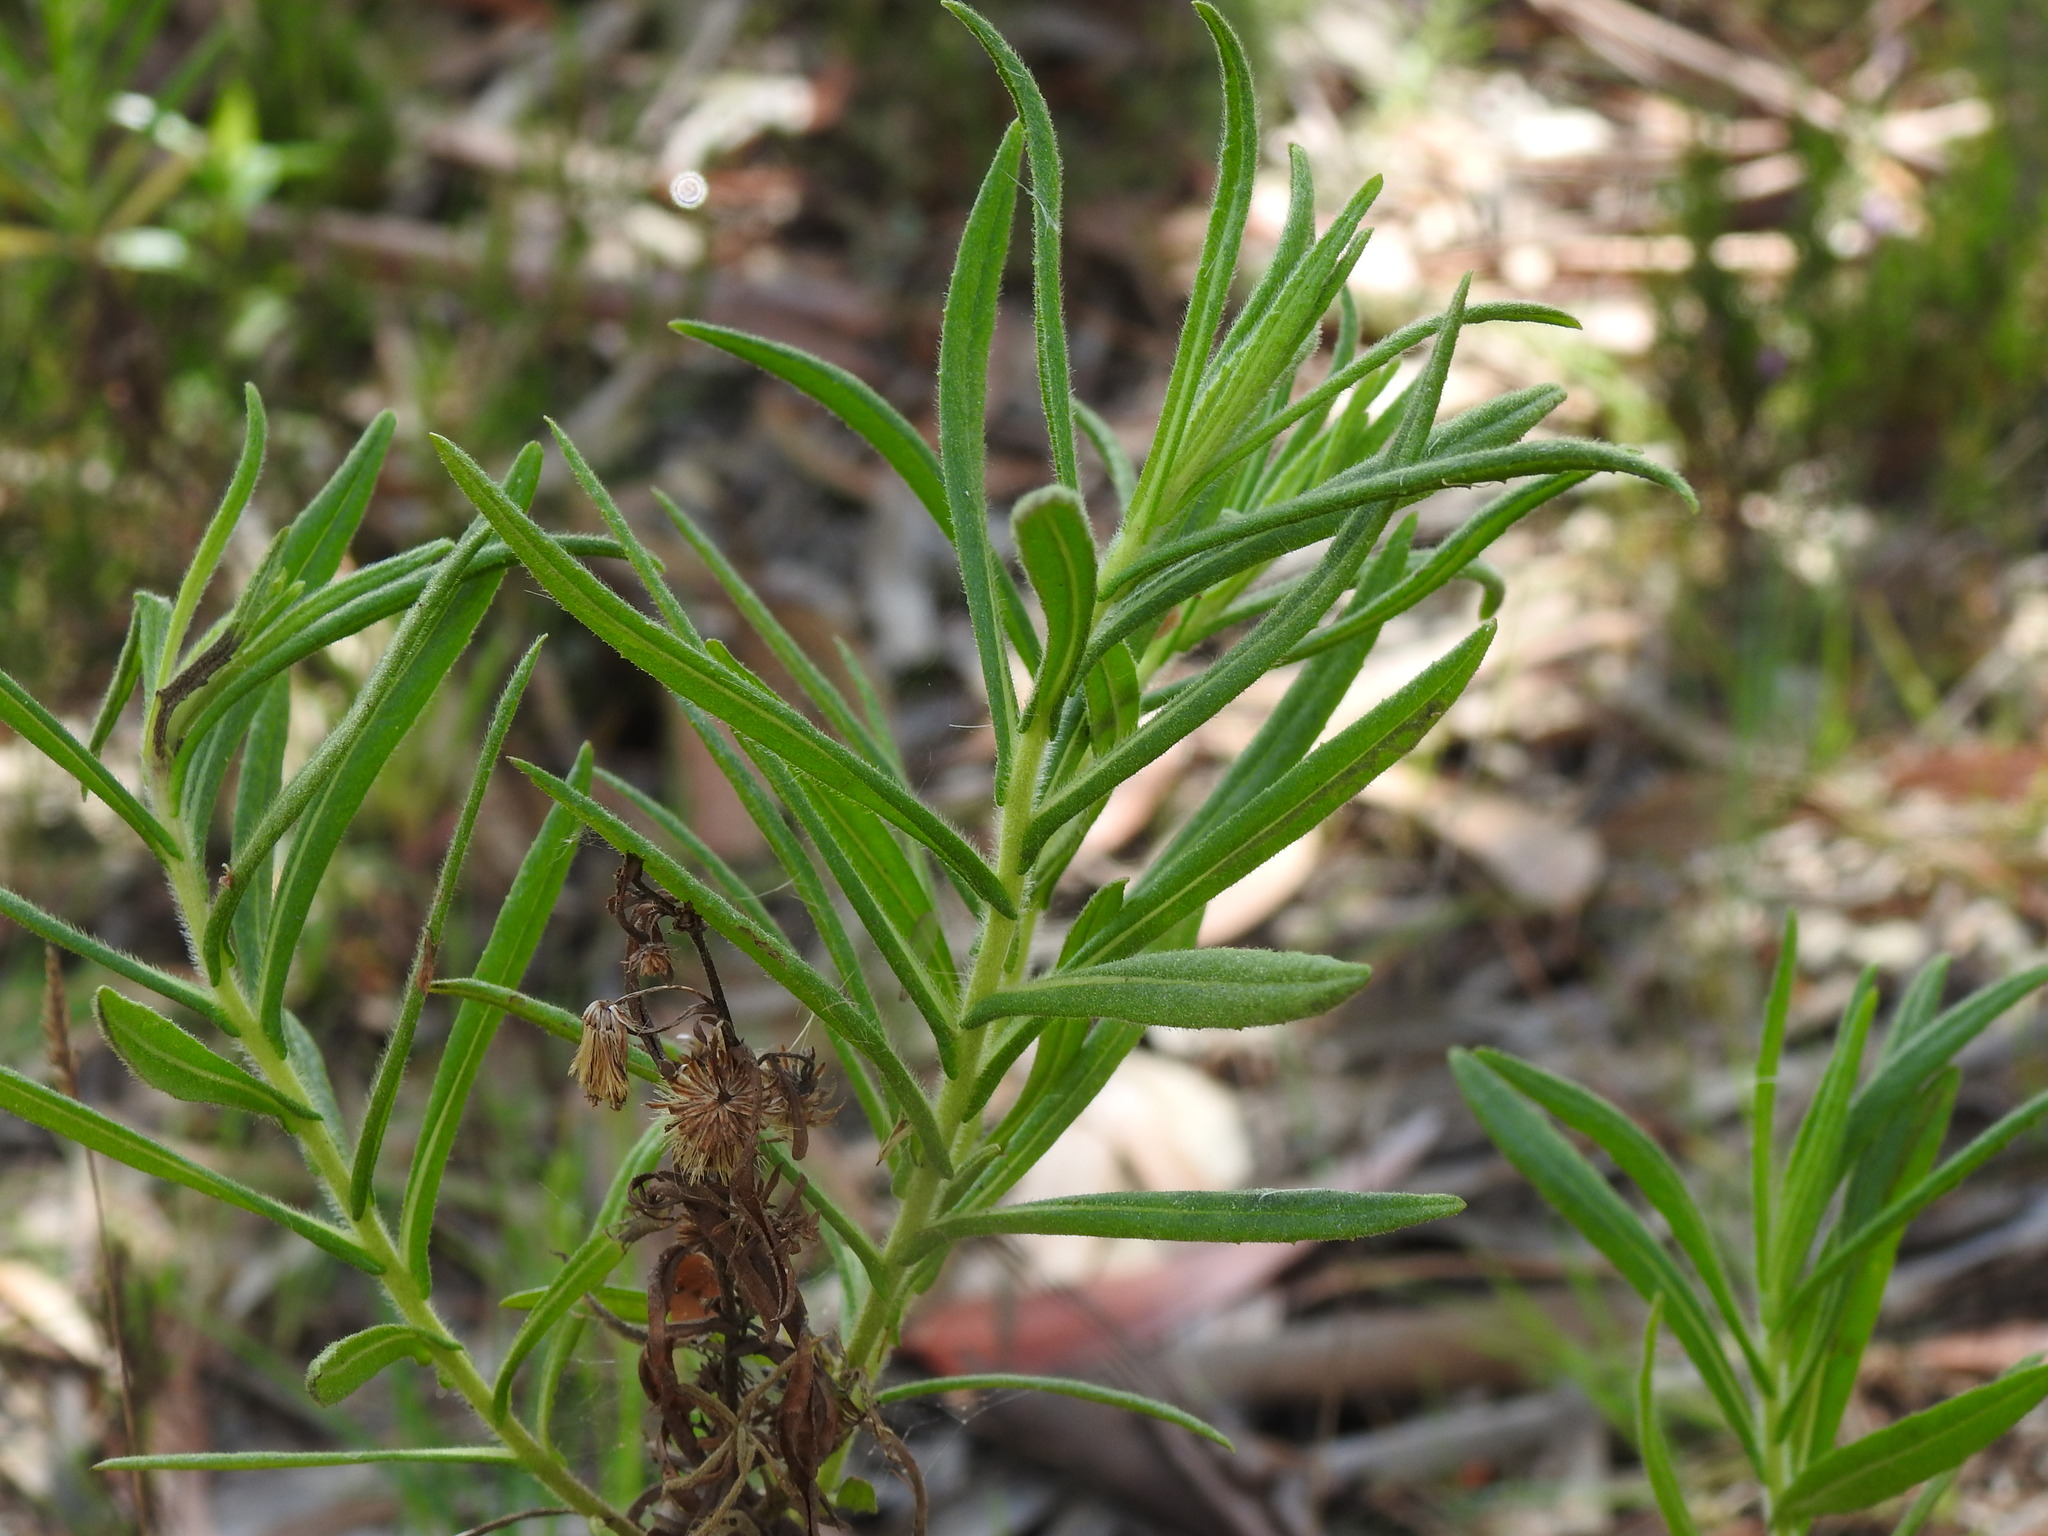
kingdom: Plantae
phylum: Tracheophyta
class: Magnoliopsida
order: Asterales
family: Asteraceae
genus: Dittrichia
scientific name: Dittrichia viscosa
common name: Woody fleabane
